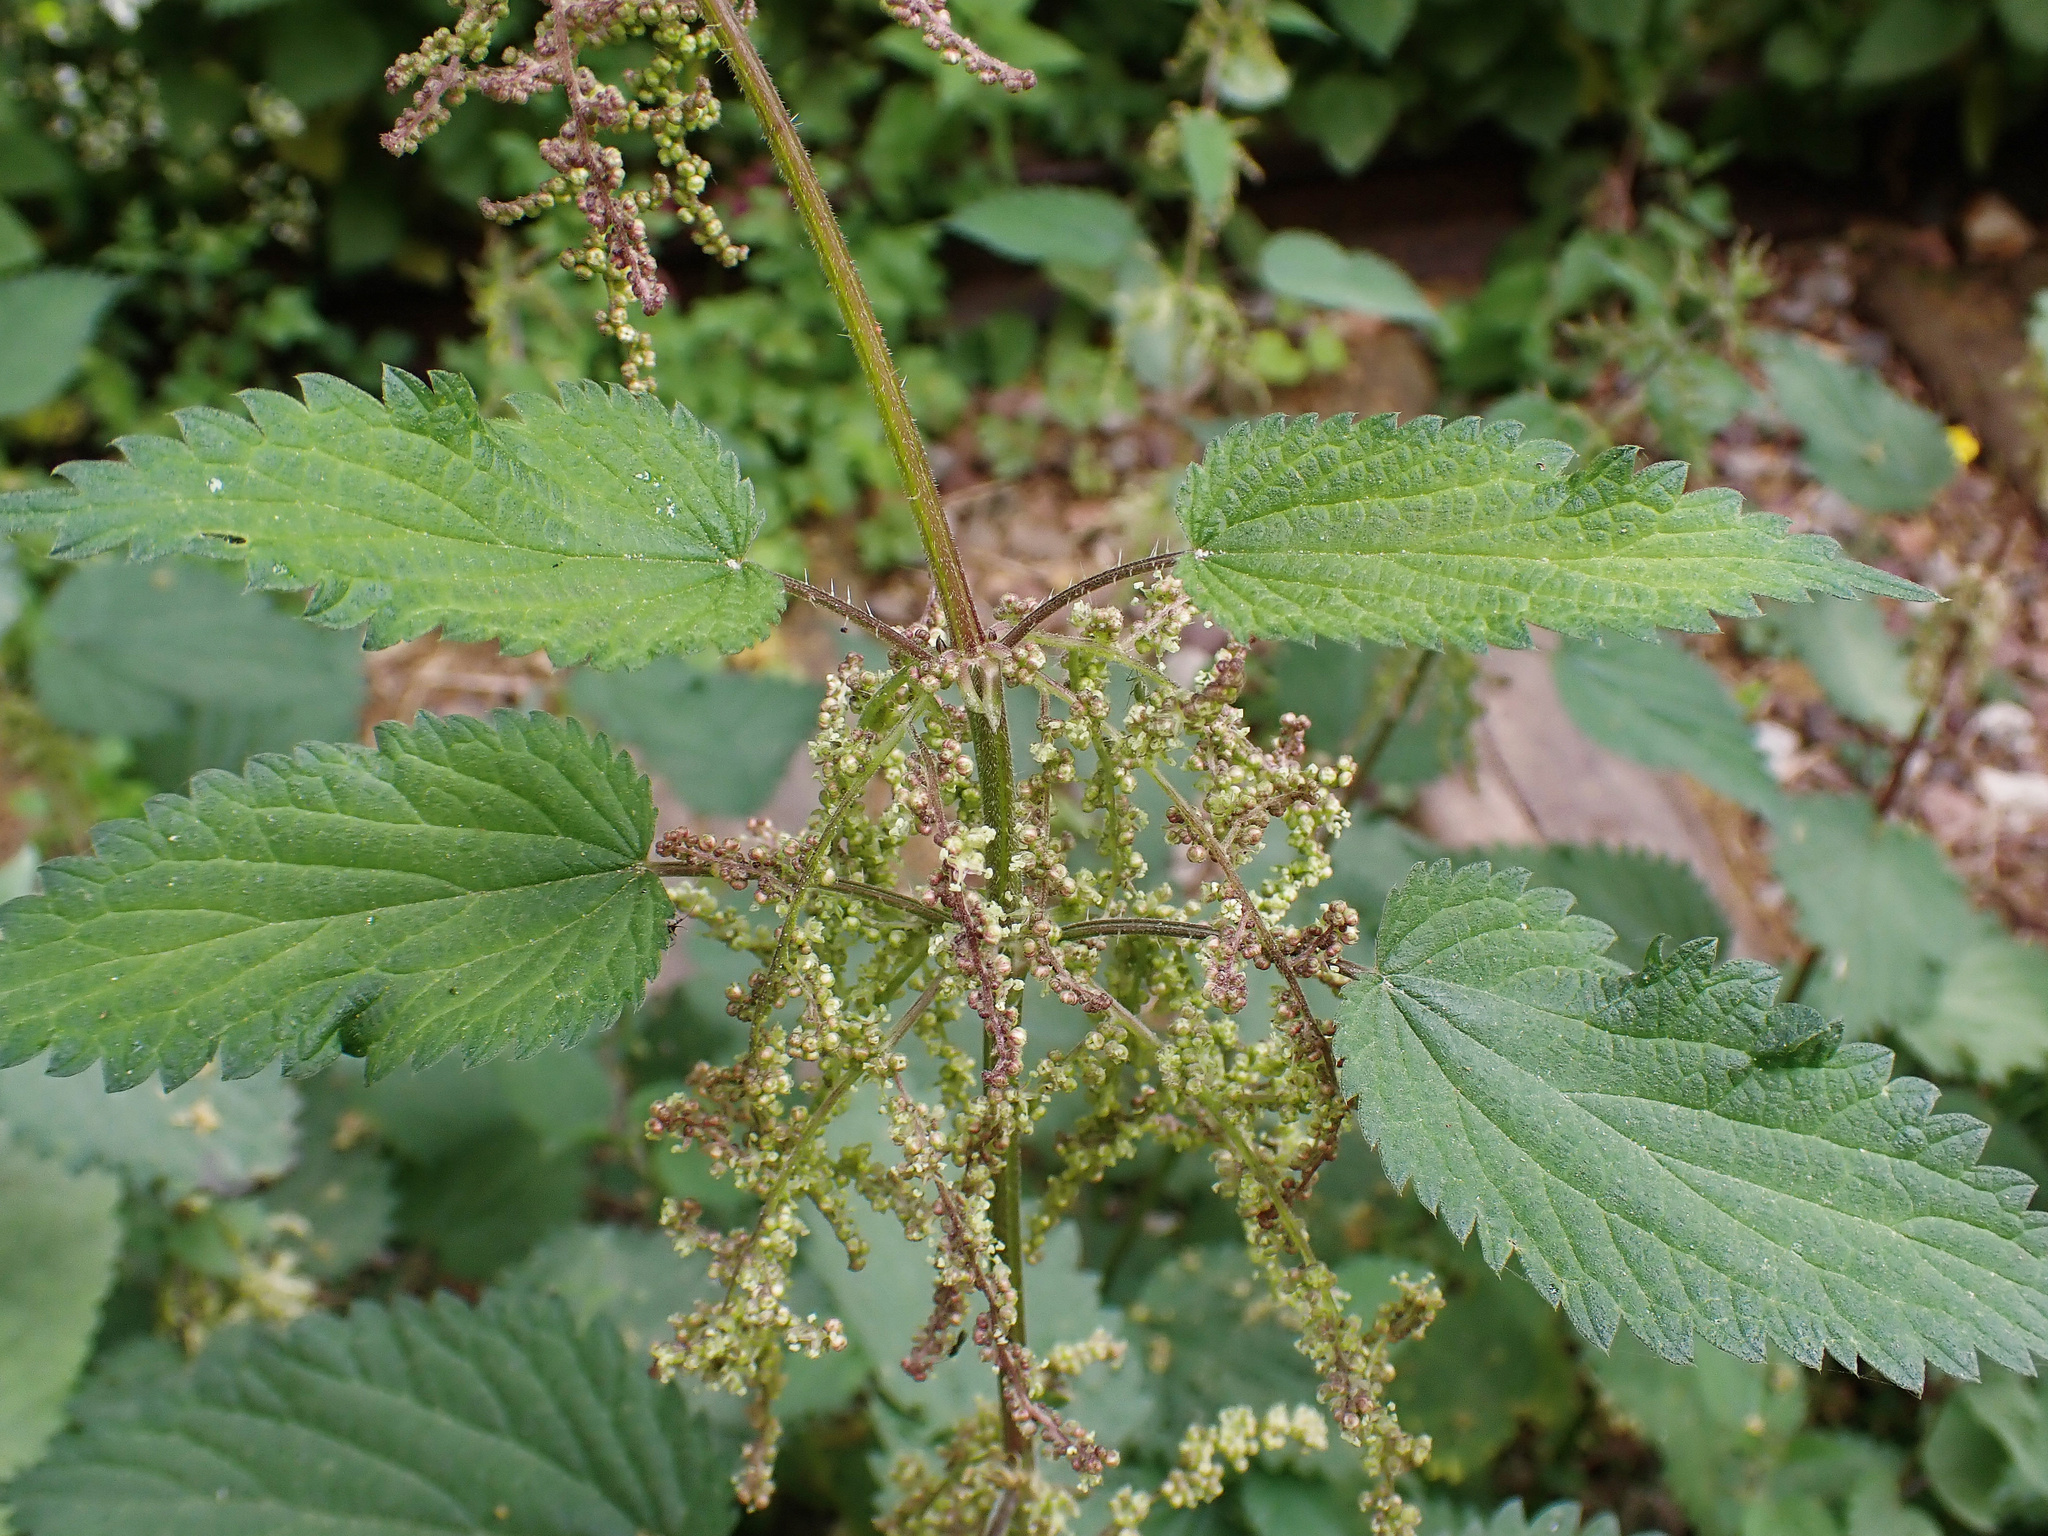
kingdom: Plantae
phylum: Tracheophyta
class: Magnoliopsida
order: Rosales
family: Urticaceae
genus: Urtica
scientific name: Urtica dioica
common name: Common nettle
